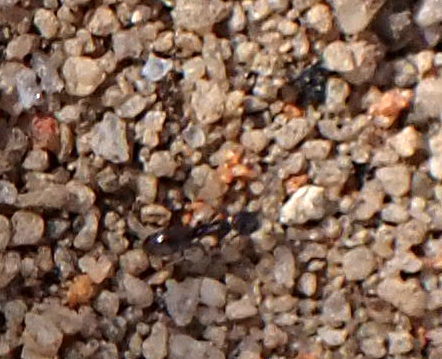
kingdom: Animalia
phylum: Arthropoda
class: Insecta
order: Hymenoptera
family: Formicidae
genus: Forelius
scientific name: Forelius pruinosus
